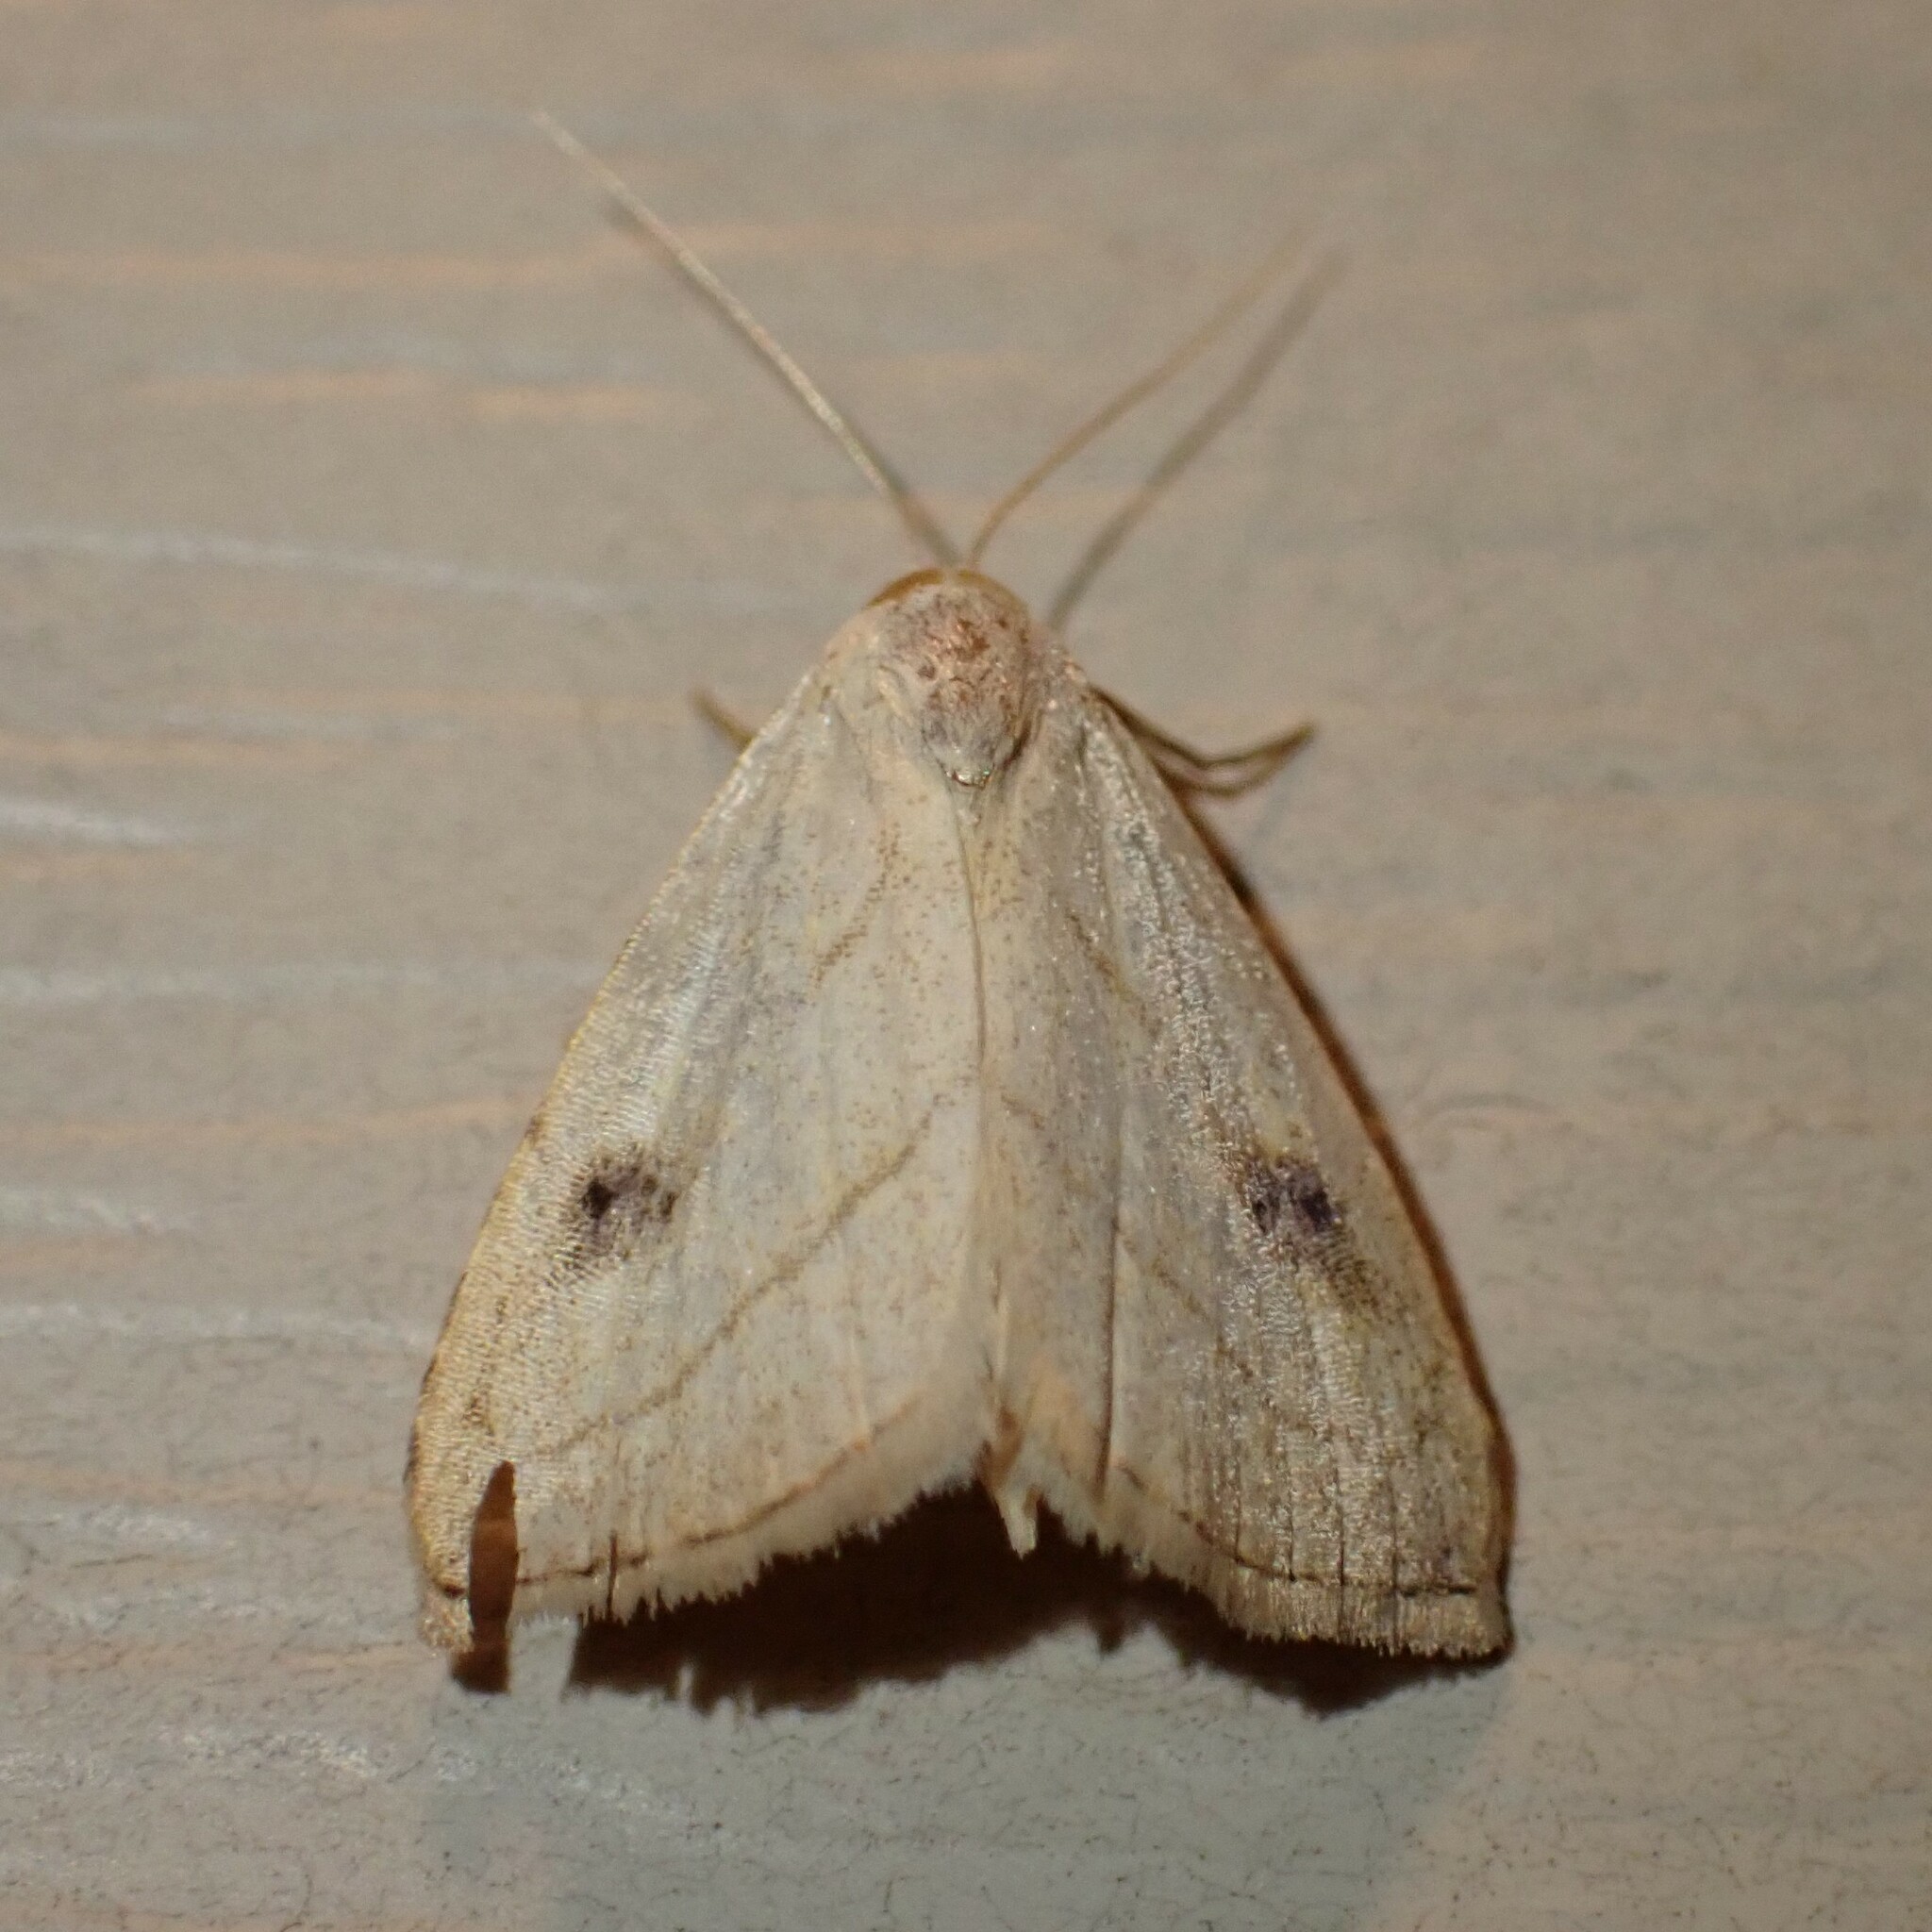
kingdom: Animalia
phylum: Arthropoda
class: Insecta
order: Lepidoptera
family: Erebidae
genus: Rivula
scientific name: Rivula propinqualis
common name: Spotted grass moth
